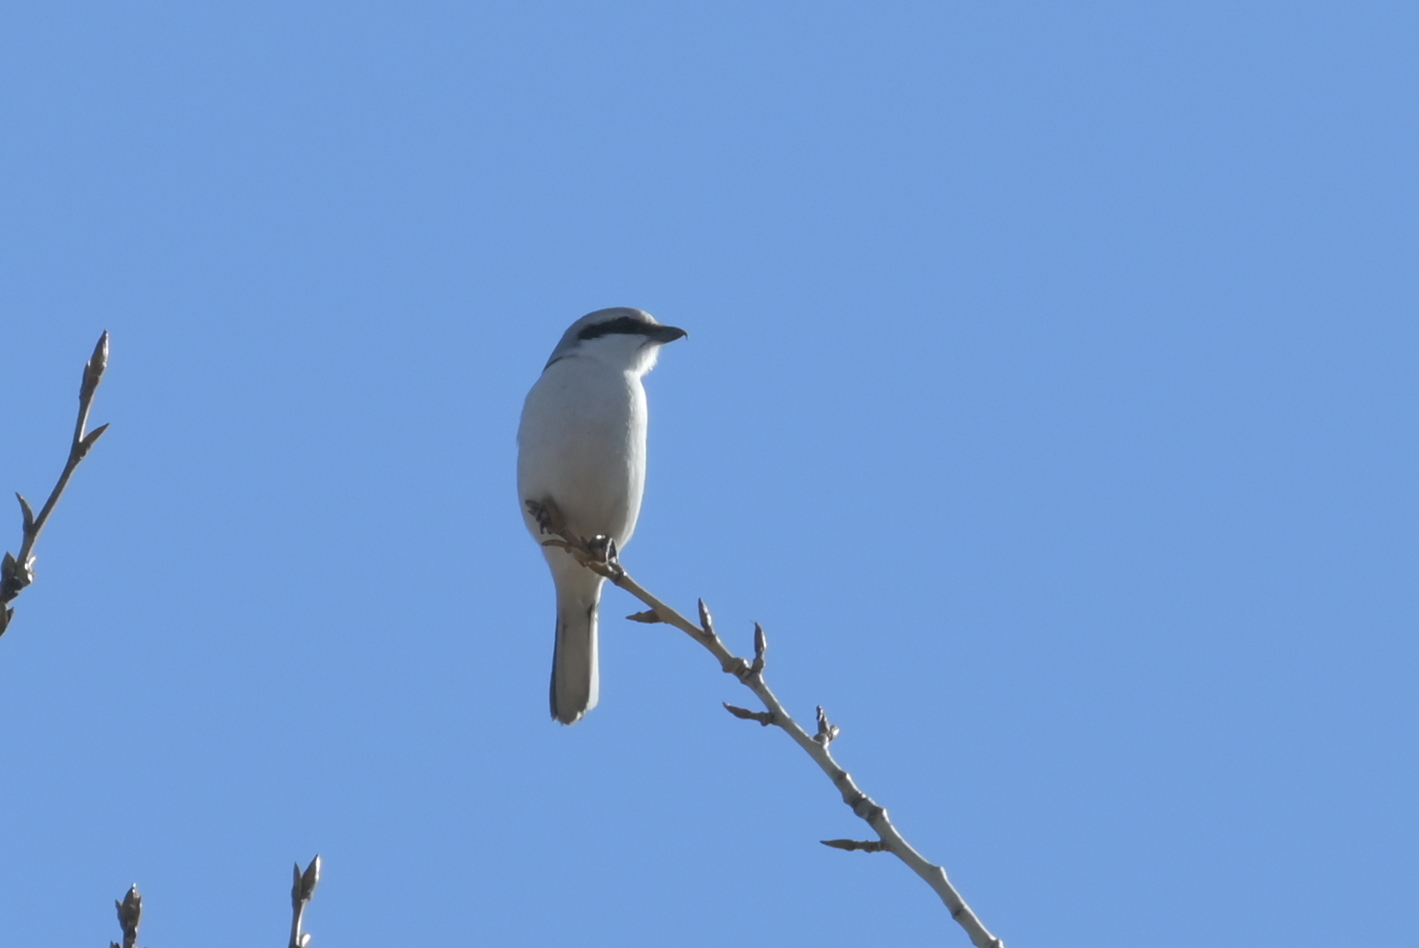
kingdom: Animalia
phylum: Chordata
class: Aves
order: Passeriformes
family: Laniidae
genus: Lanius
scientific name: Lanius excubitor
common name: Great grey shrike
